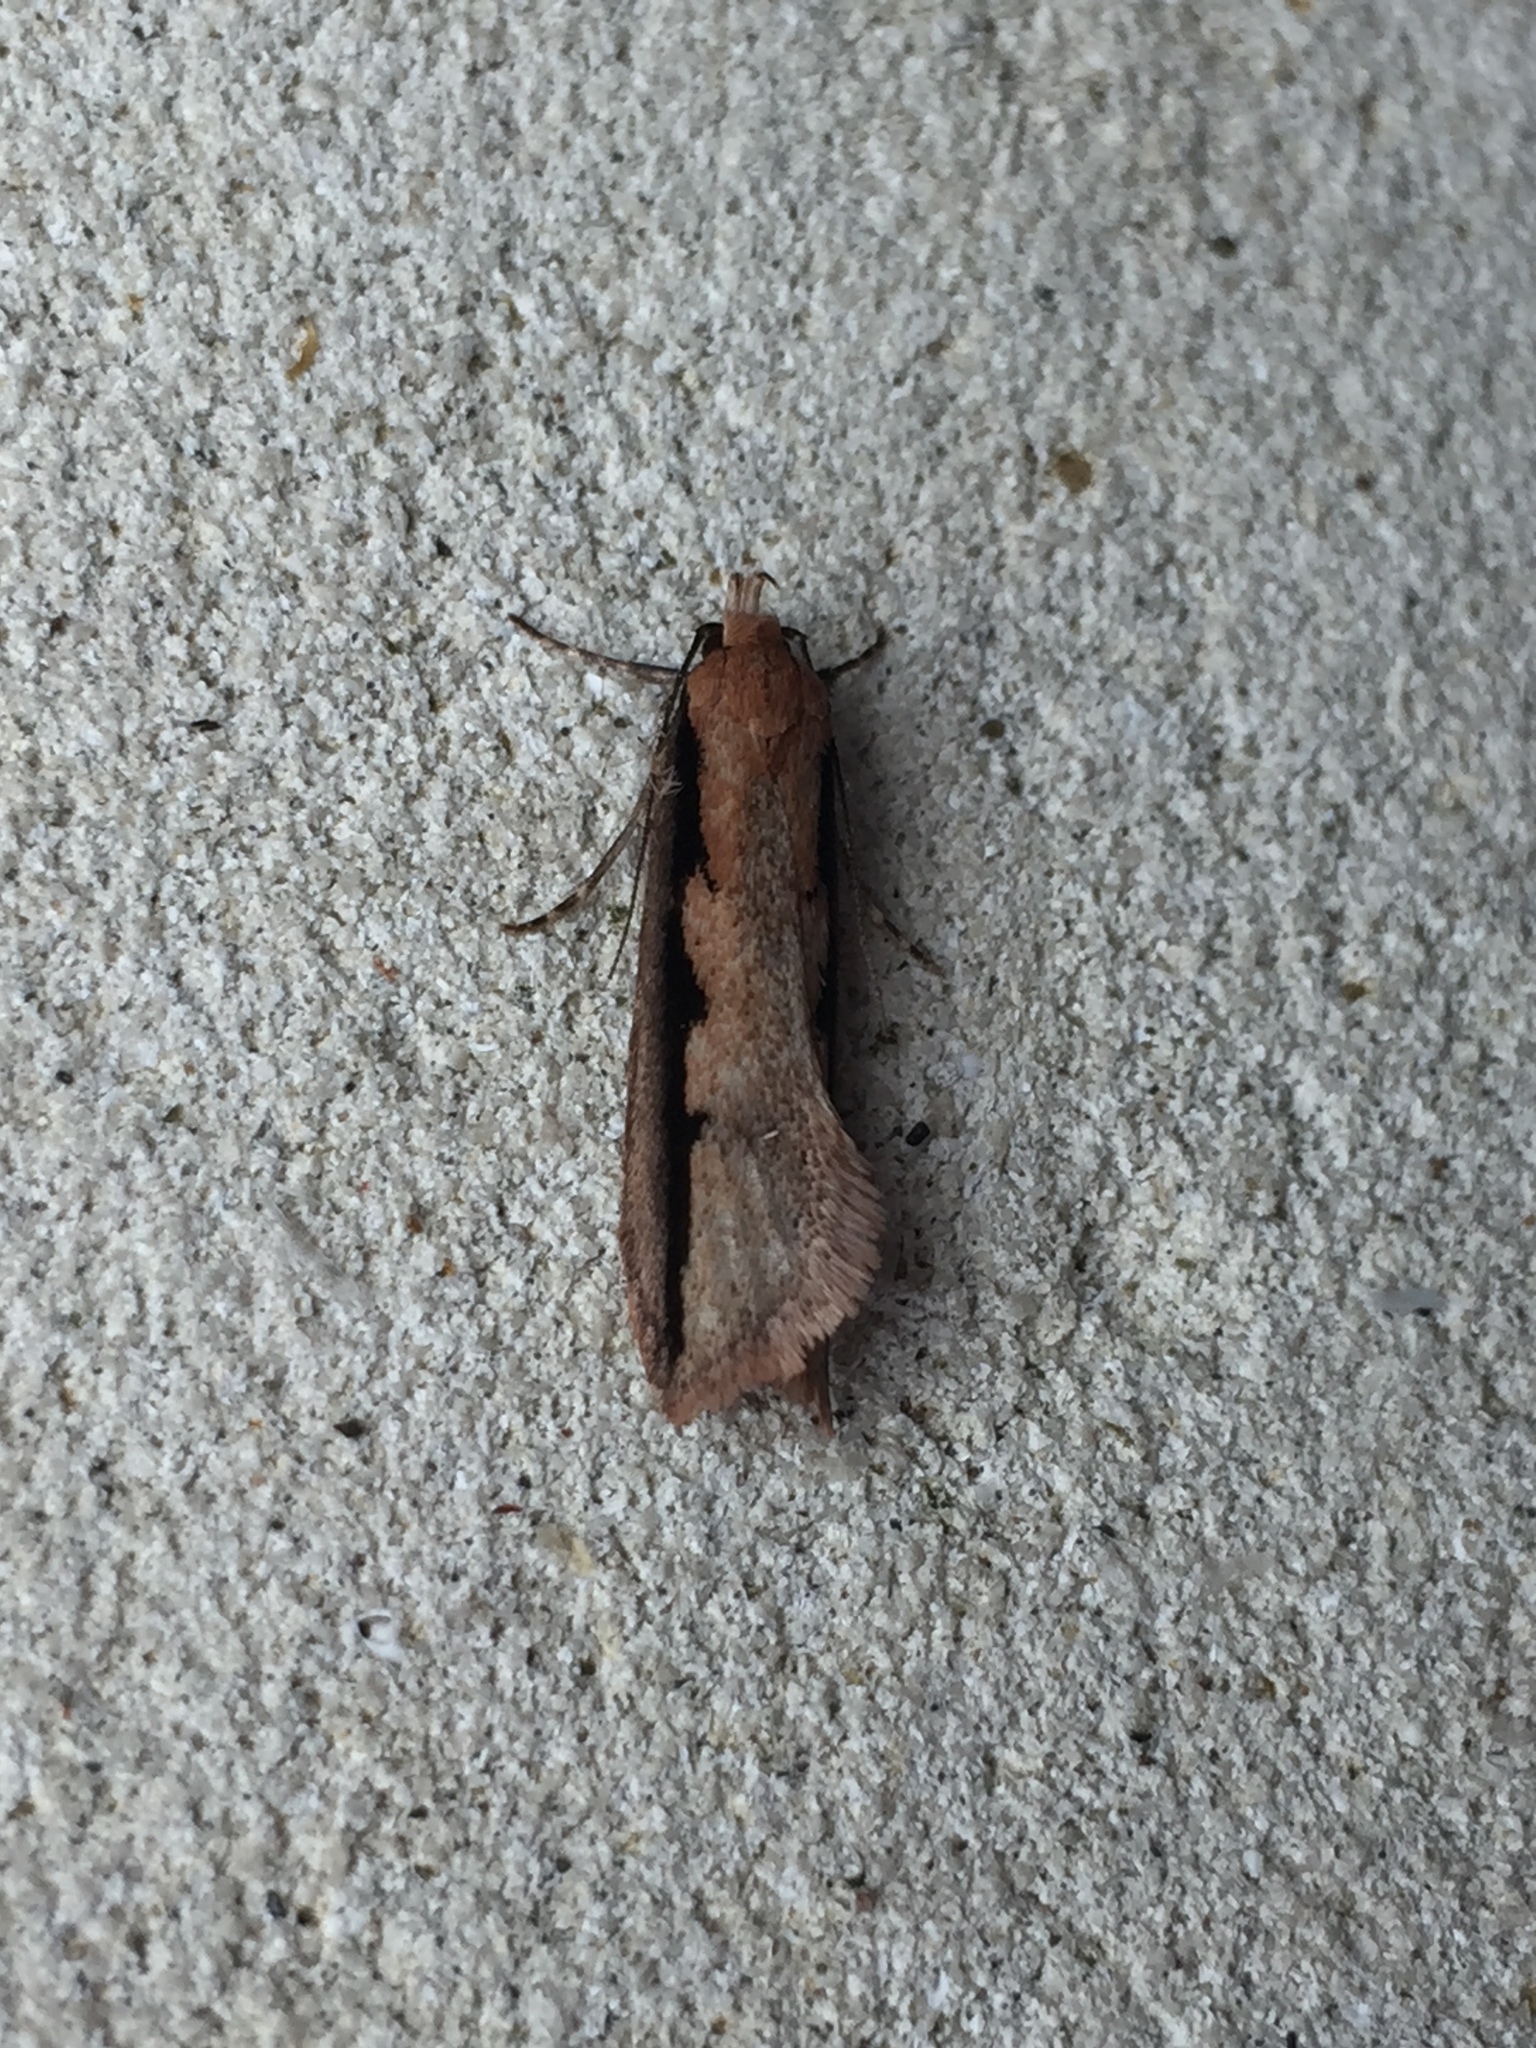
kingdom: Animalia
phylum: Arthropoda
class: Insecta
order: Lepidoptera
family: Oecophoridae
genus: Leptocroca
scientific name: Leptocroca sanguinolenta
